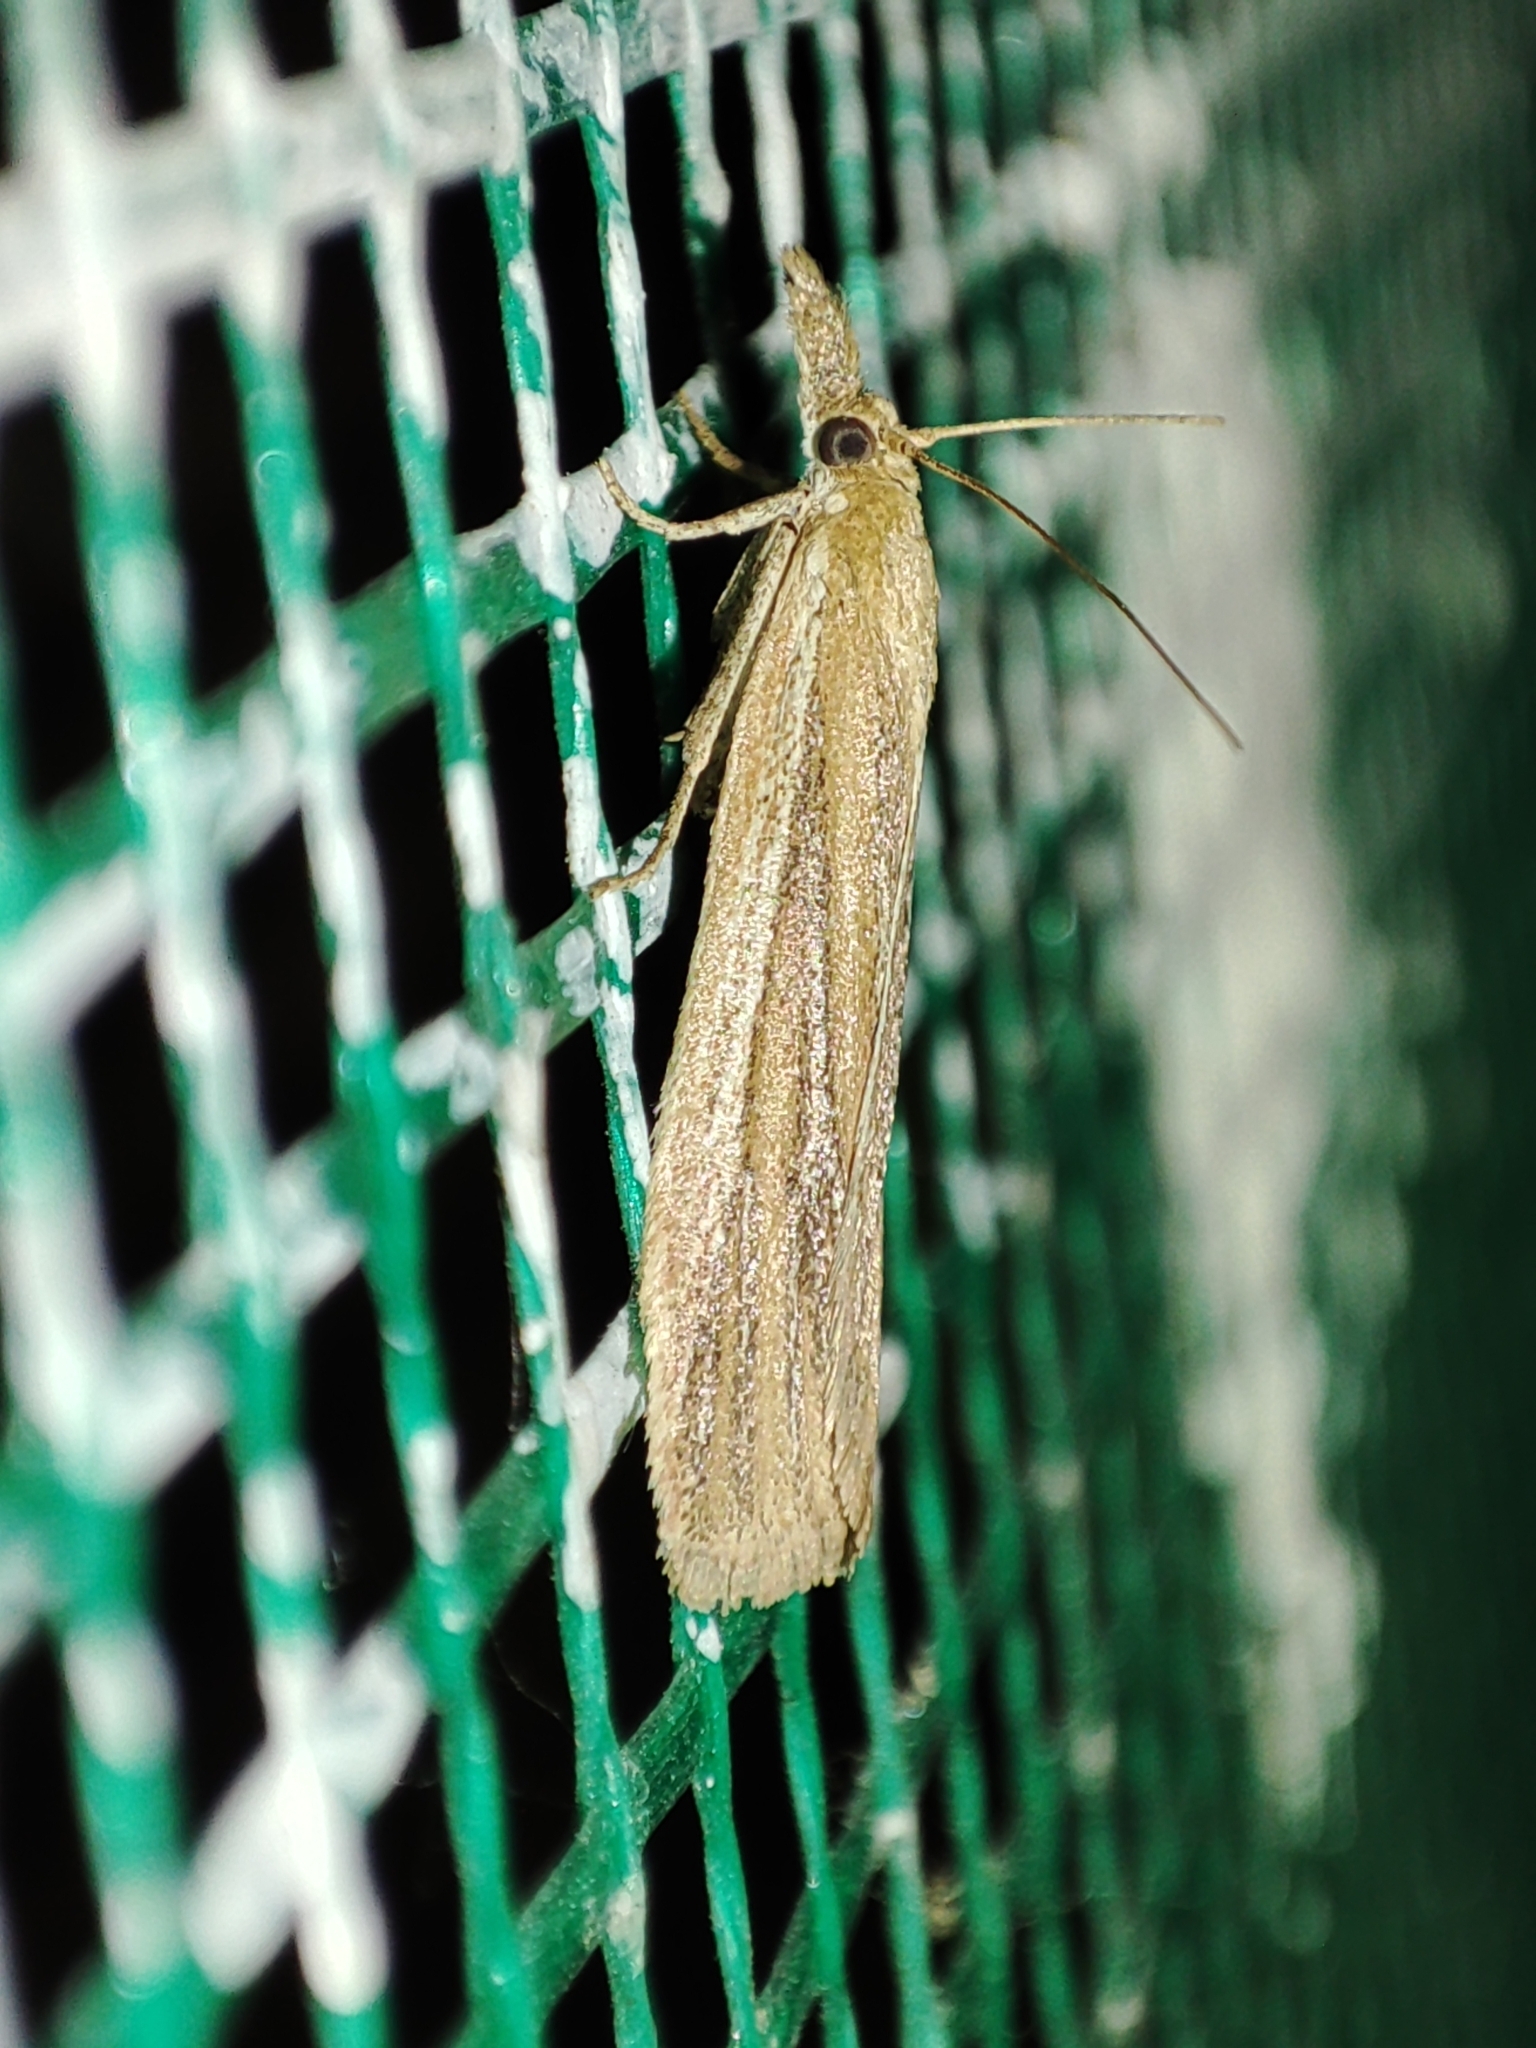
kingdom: Animalia
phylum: Arthropoda
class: Insecta
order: Lepidoptera
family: Pyralidae
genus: Anerastia
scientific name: Anerastia lotella
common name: Sandhill knot-horn
